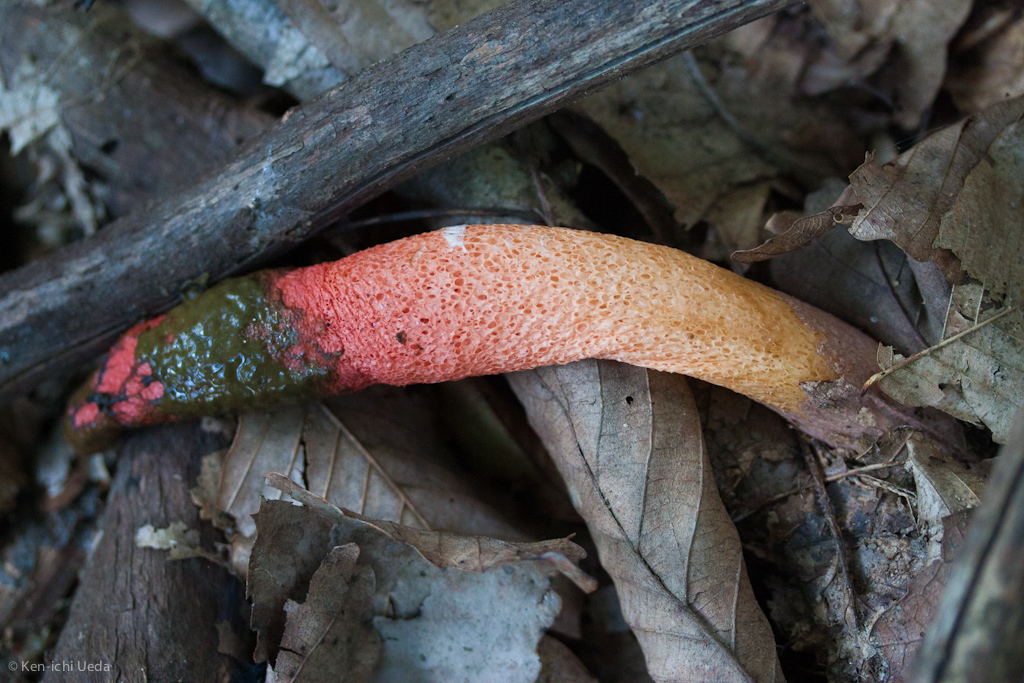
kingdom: Fungi
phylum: Basidiomycota
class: Agaricomycetes
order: Phallales
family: Phallaceae
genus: Mutinus
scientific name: Mutinus elegans
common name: Devil's dipstick
